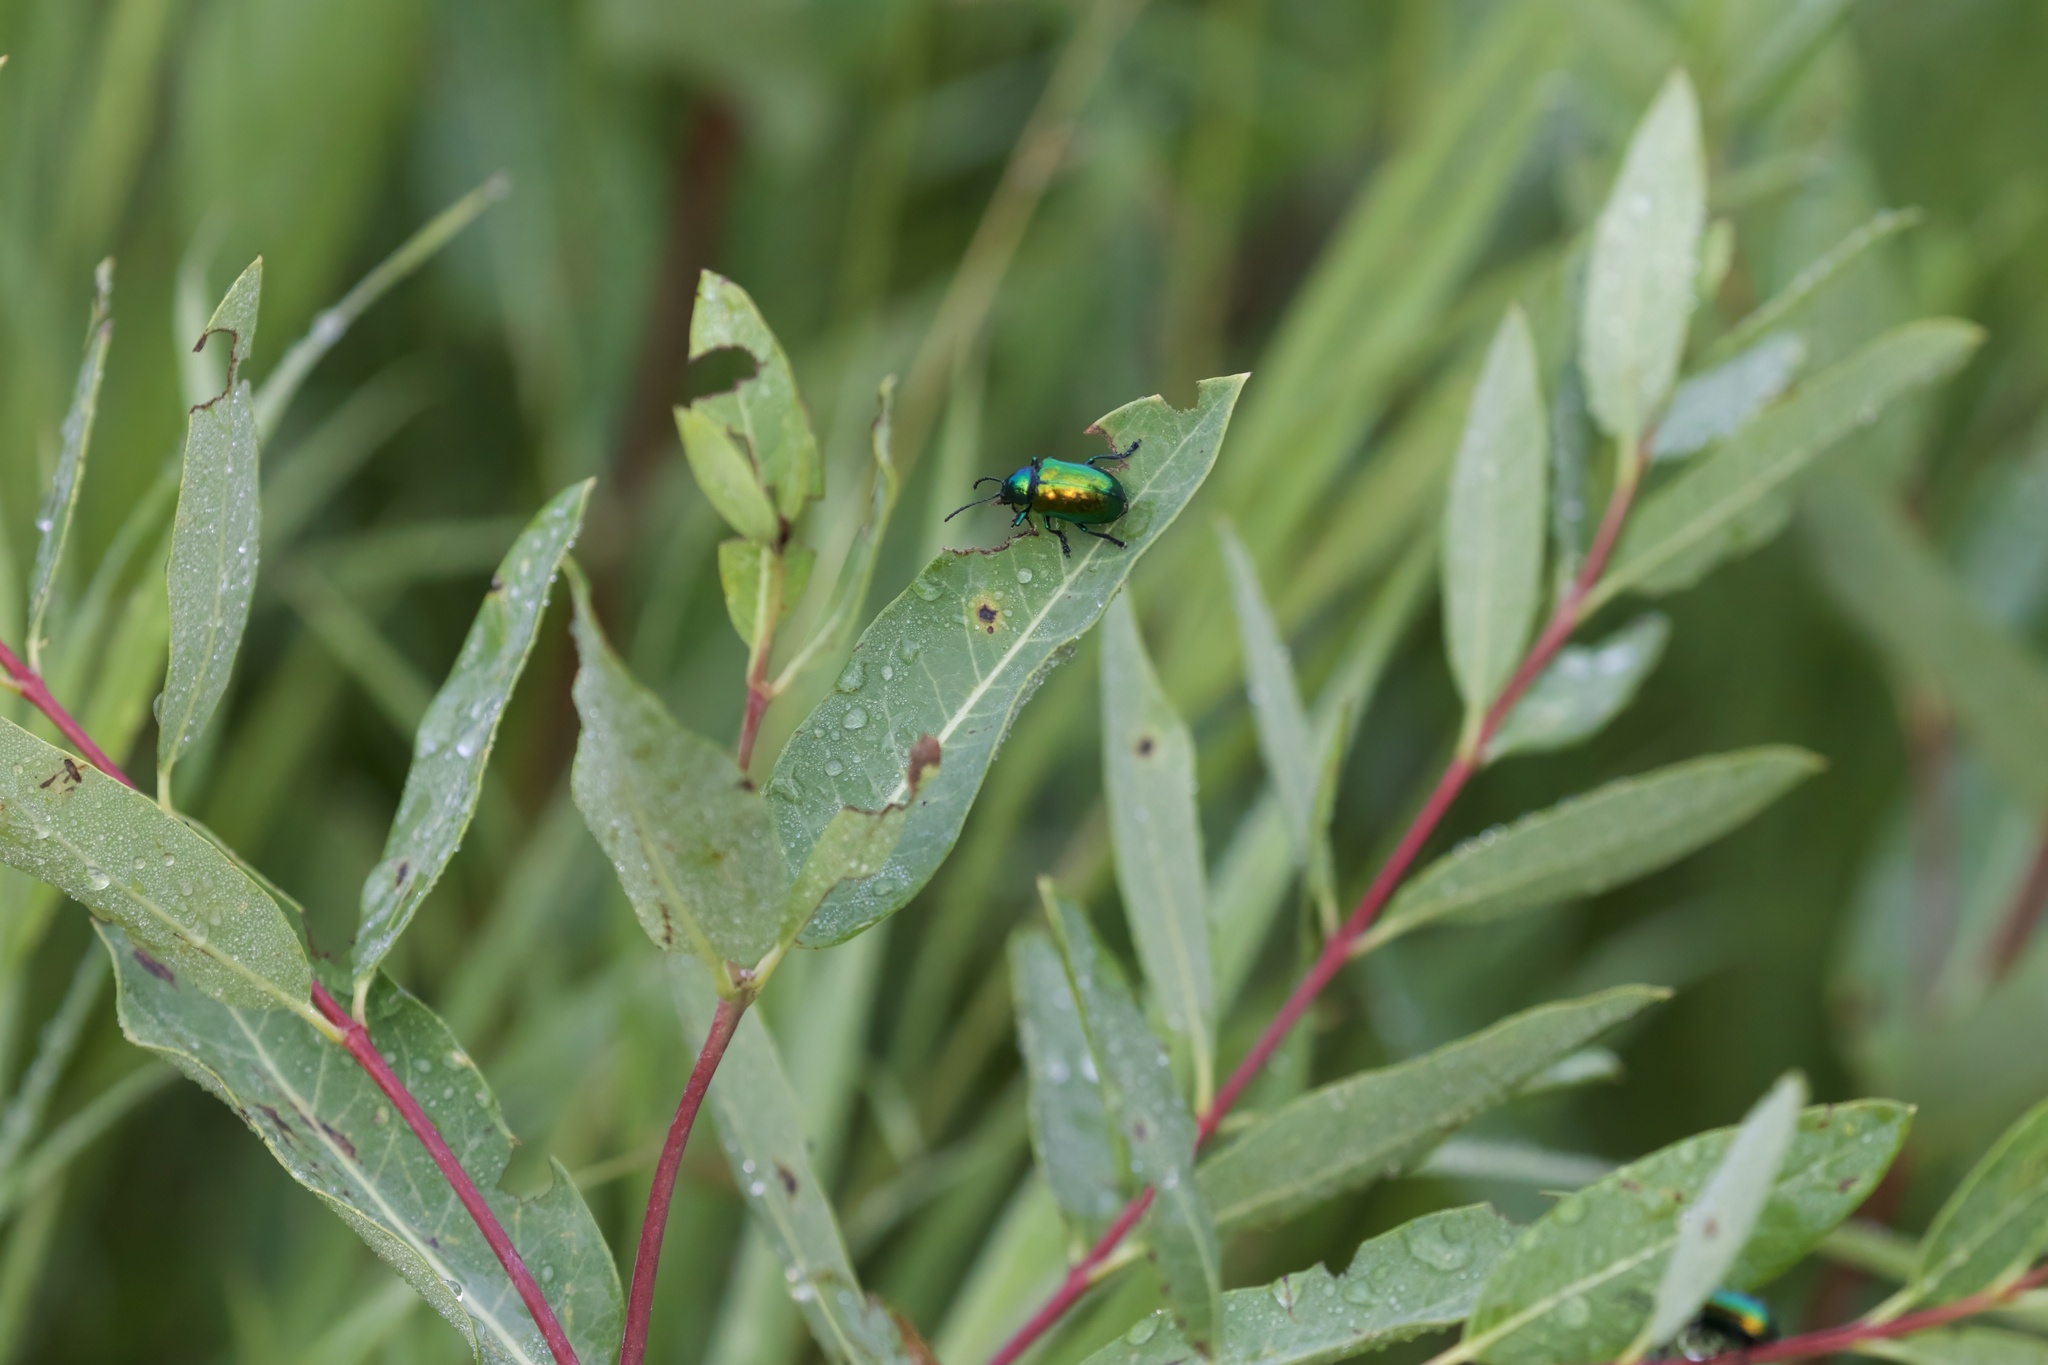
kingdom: Animalia
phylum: Arthropoda
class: Insecta
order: Coleoptera
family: Chrysomelidae
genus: Chrysochus
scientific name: Chrysochus auratus
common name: Dogbane leaf beetle
